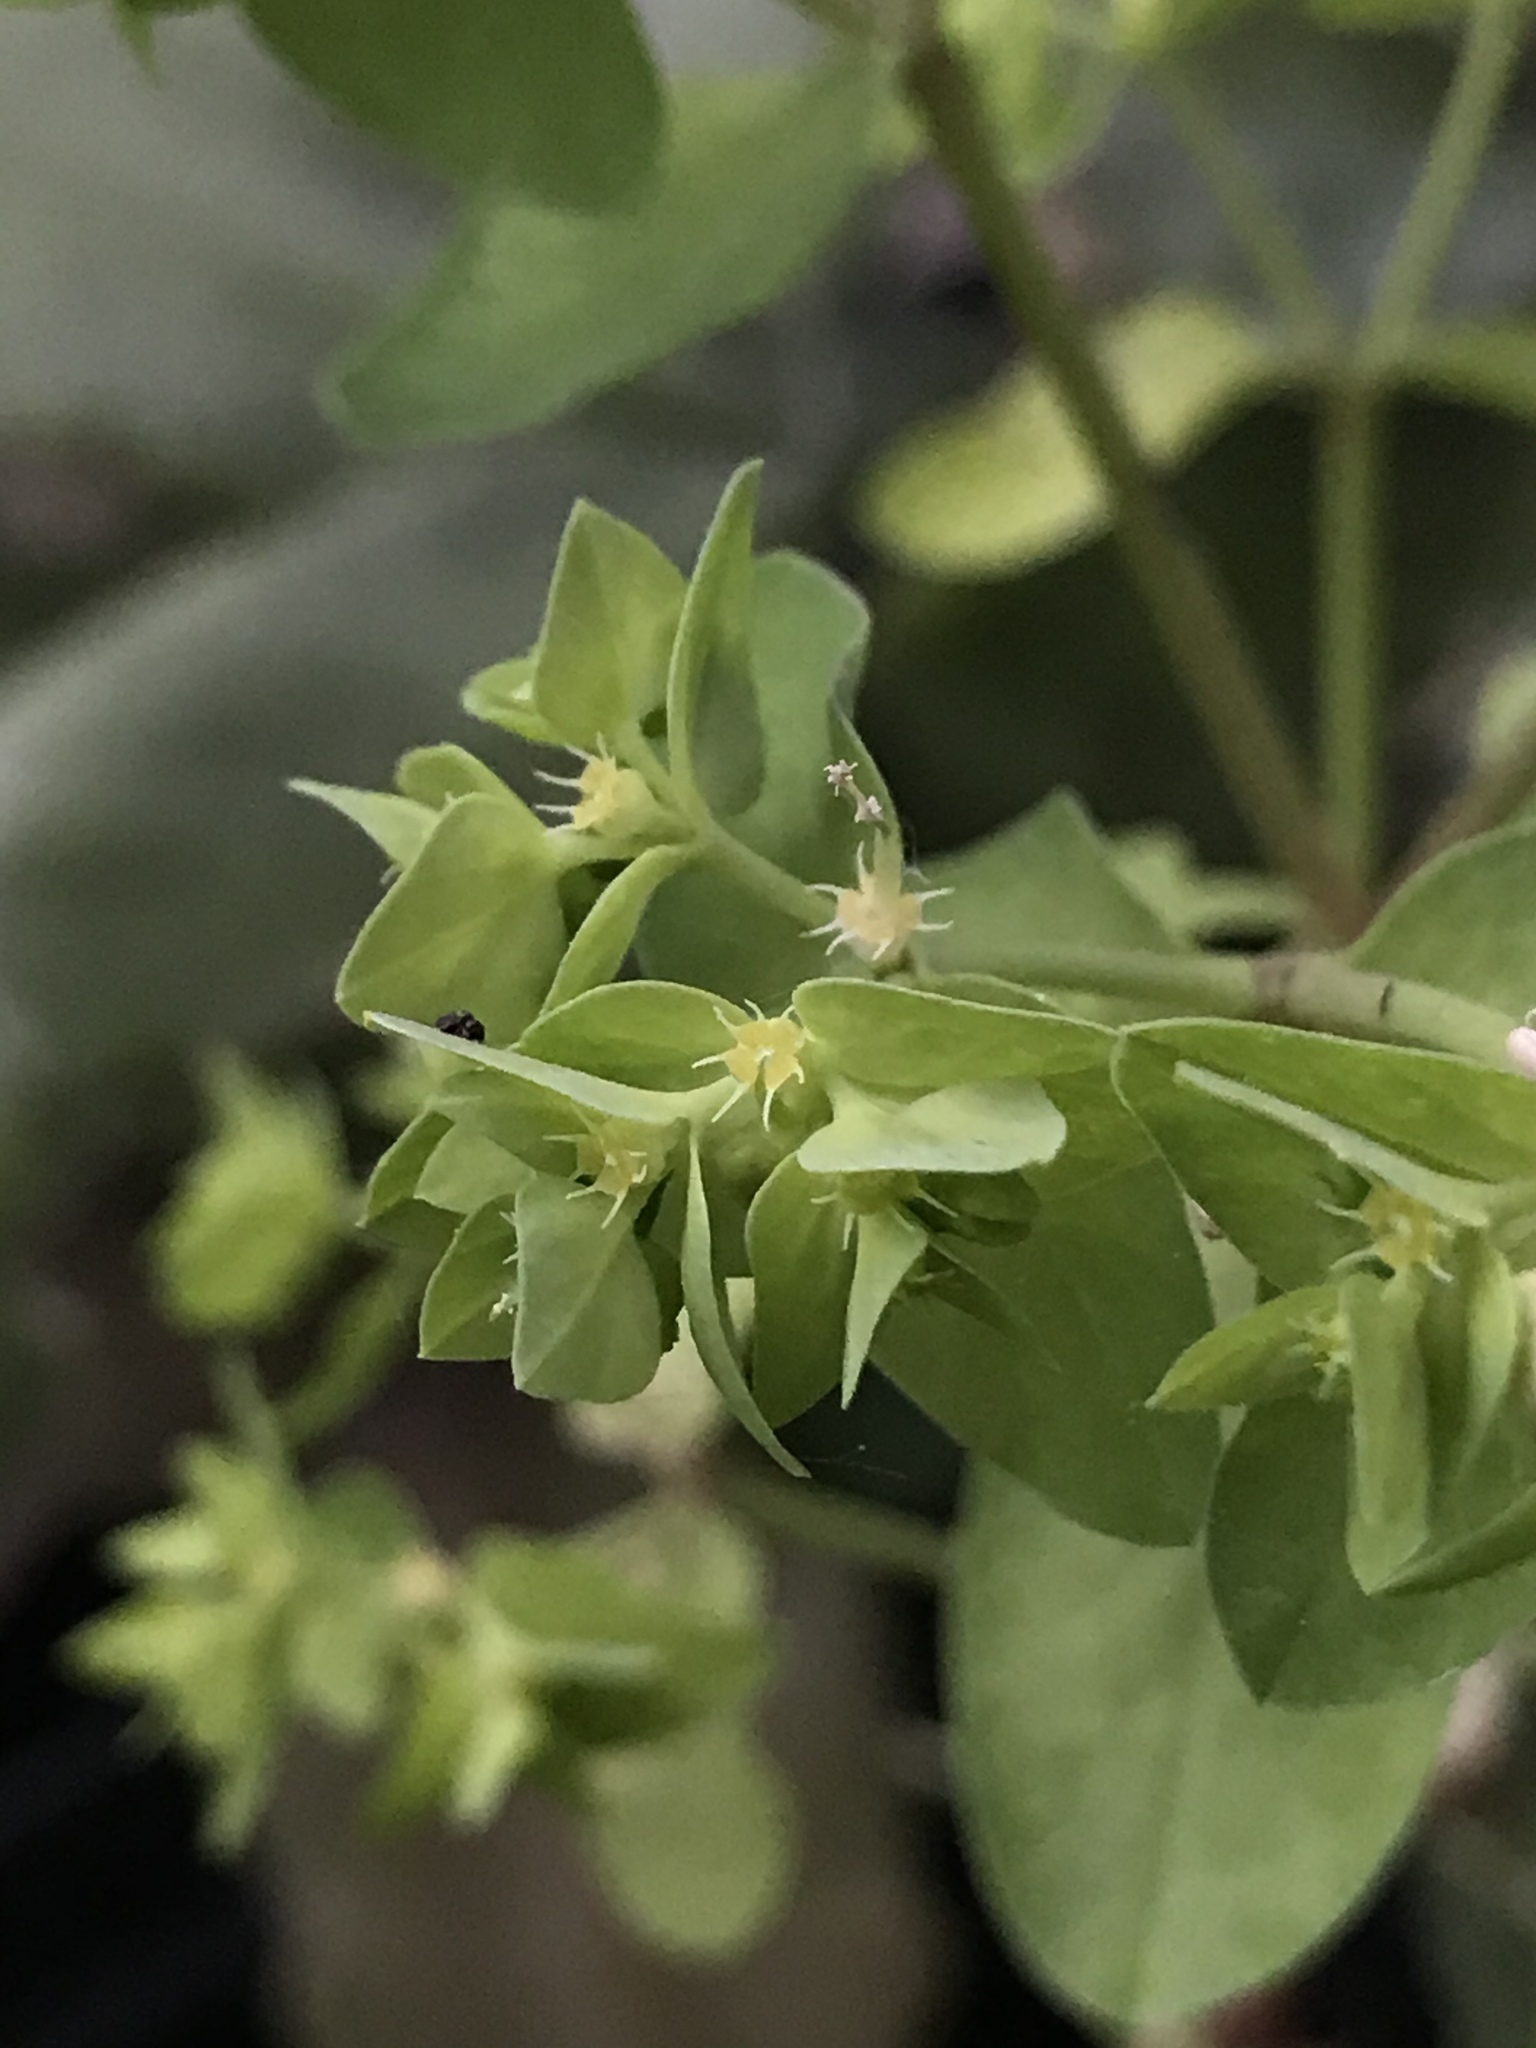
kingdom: Plantae
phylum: Tracheophyta
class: Magnoliopsida
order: Malpighiales
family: Euphorbiaceae
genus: Euphorbia
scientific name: Euphorbia peplus
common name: Petty spurge
